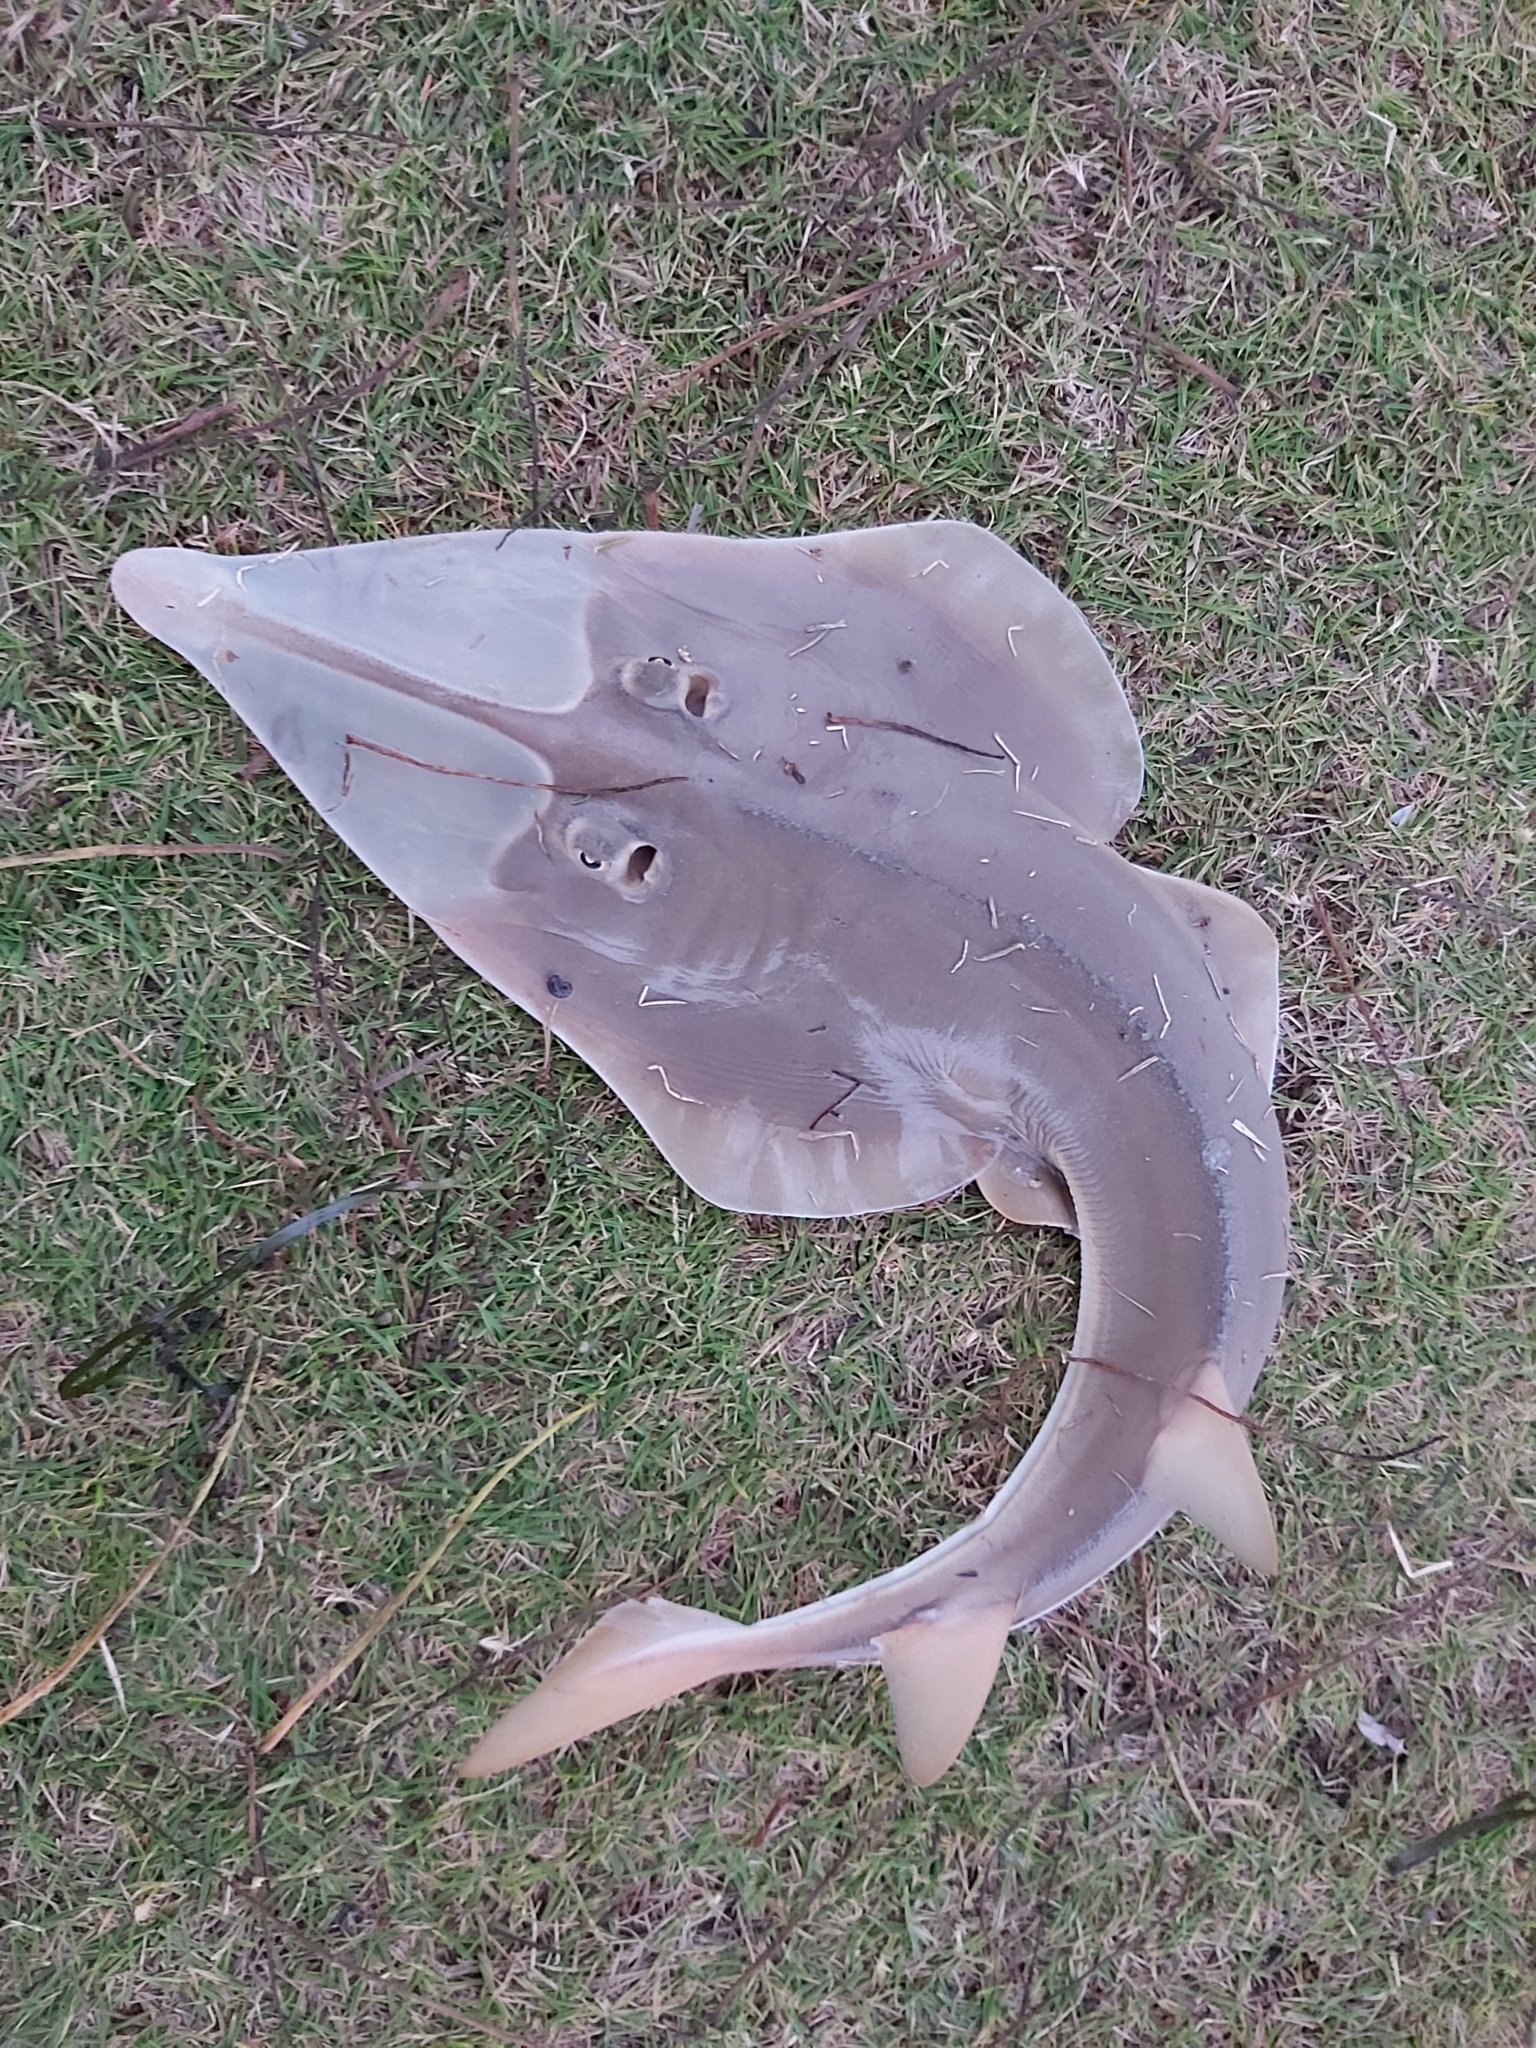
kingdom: Animalia
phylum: Chordata
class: Elasmobranchii
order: Rhinopristiformes
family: Glaucostegidae
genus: Glaucostegus
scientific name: Glaucostegus typus
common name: Giant shovelnose ray
